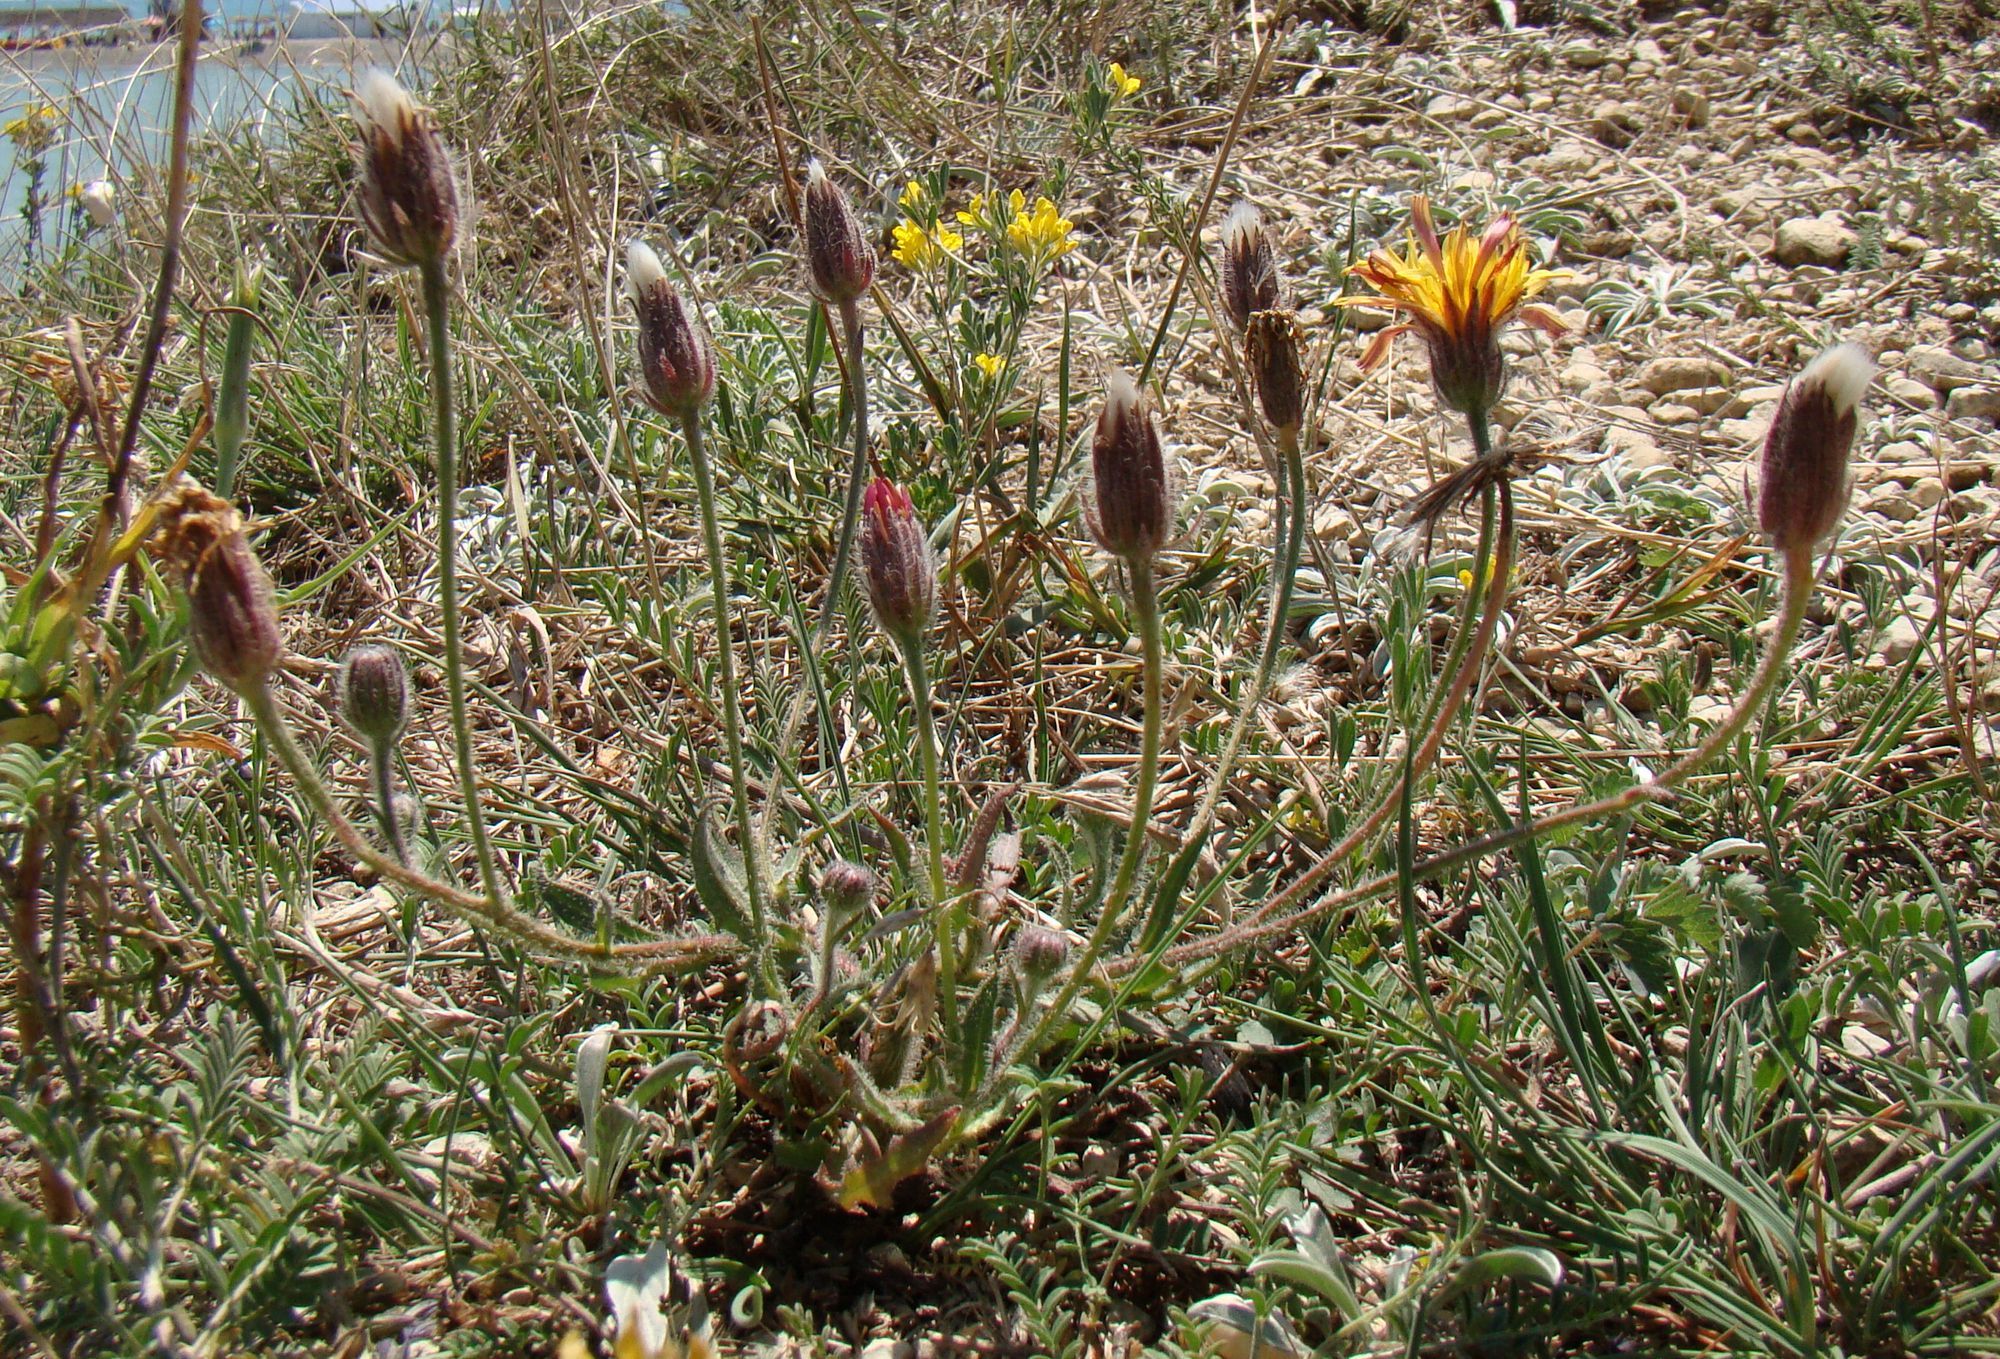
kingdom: Plantae
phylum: Tracheophyta
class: Magnoliopsida
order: Asterales
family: Asteraceae
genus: Crepis
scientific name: Crepis foetida
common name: Stinking hawk's-beard
